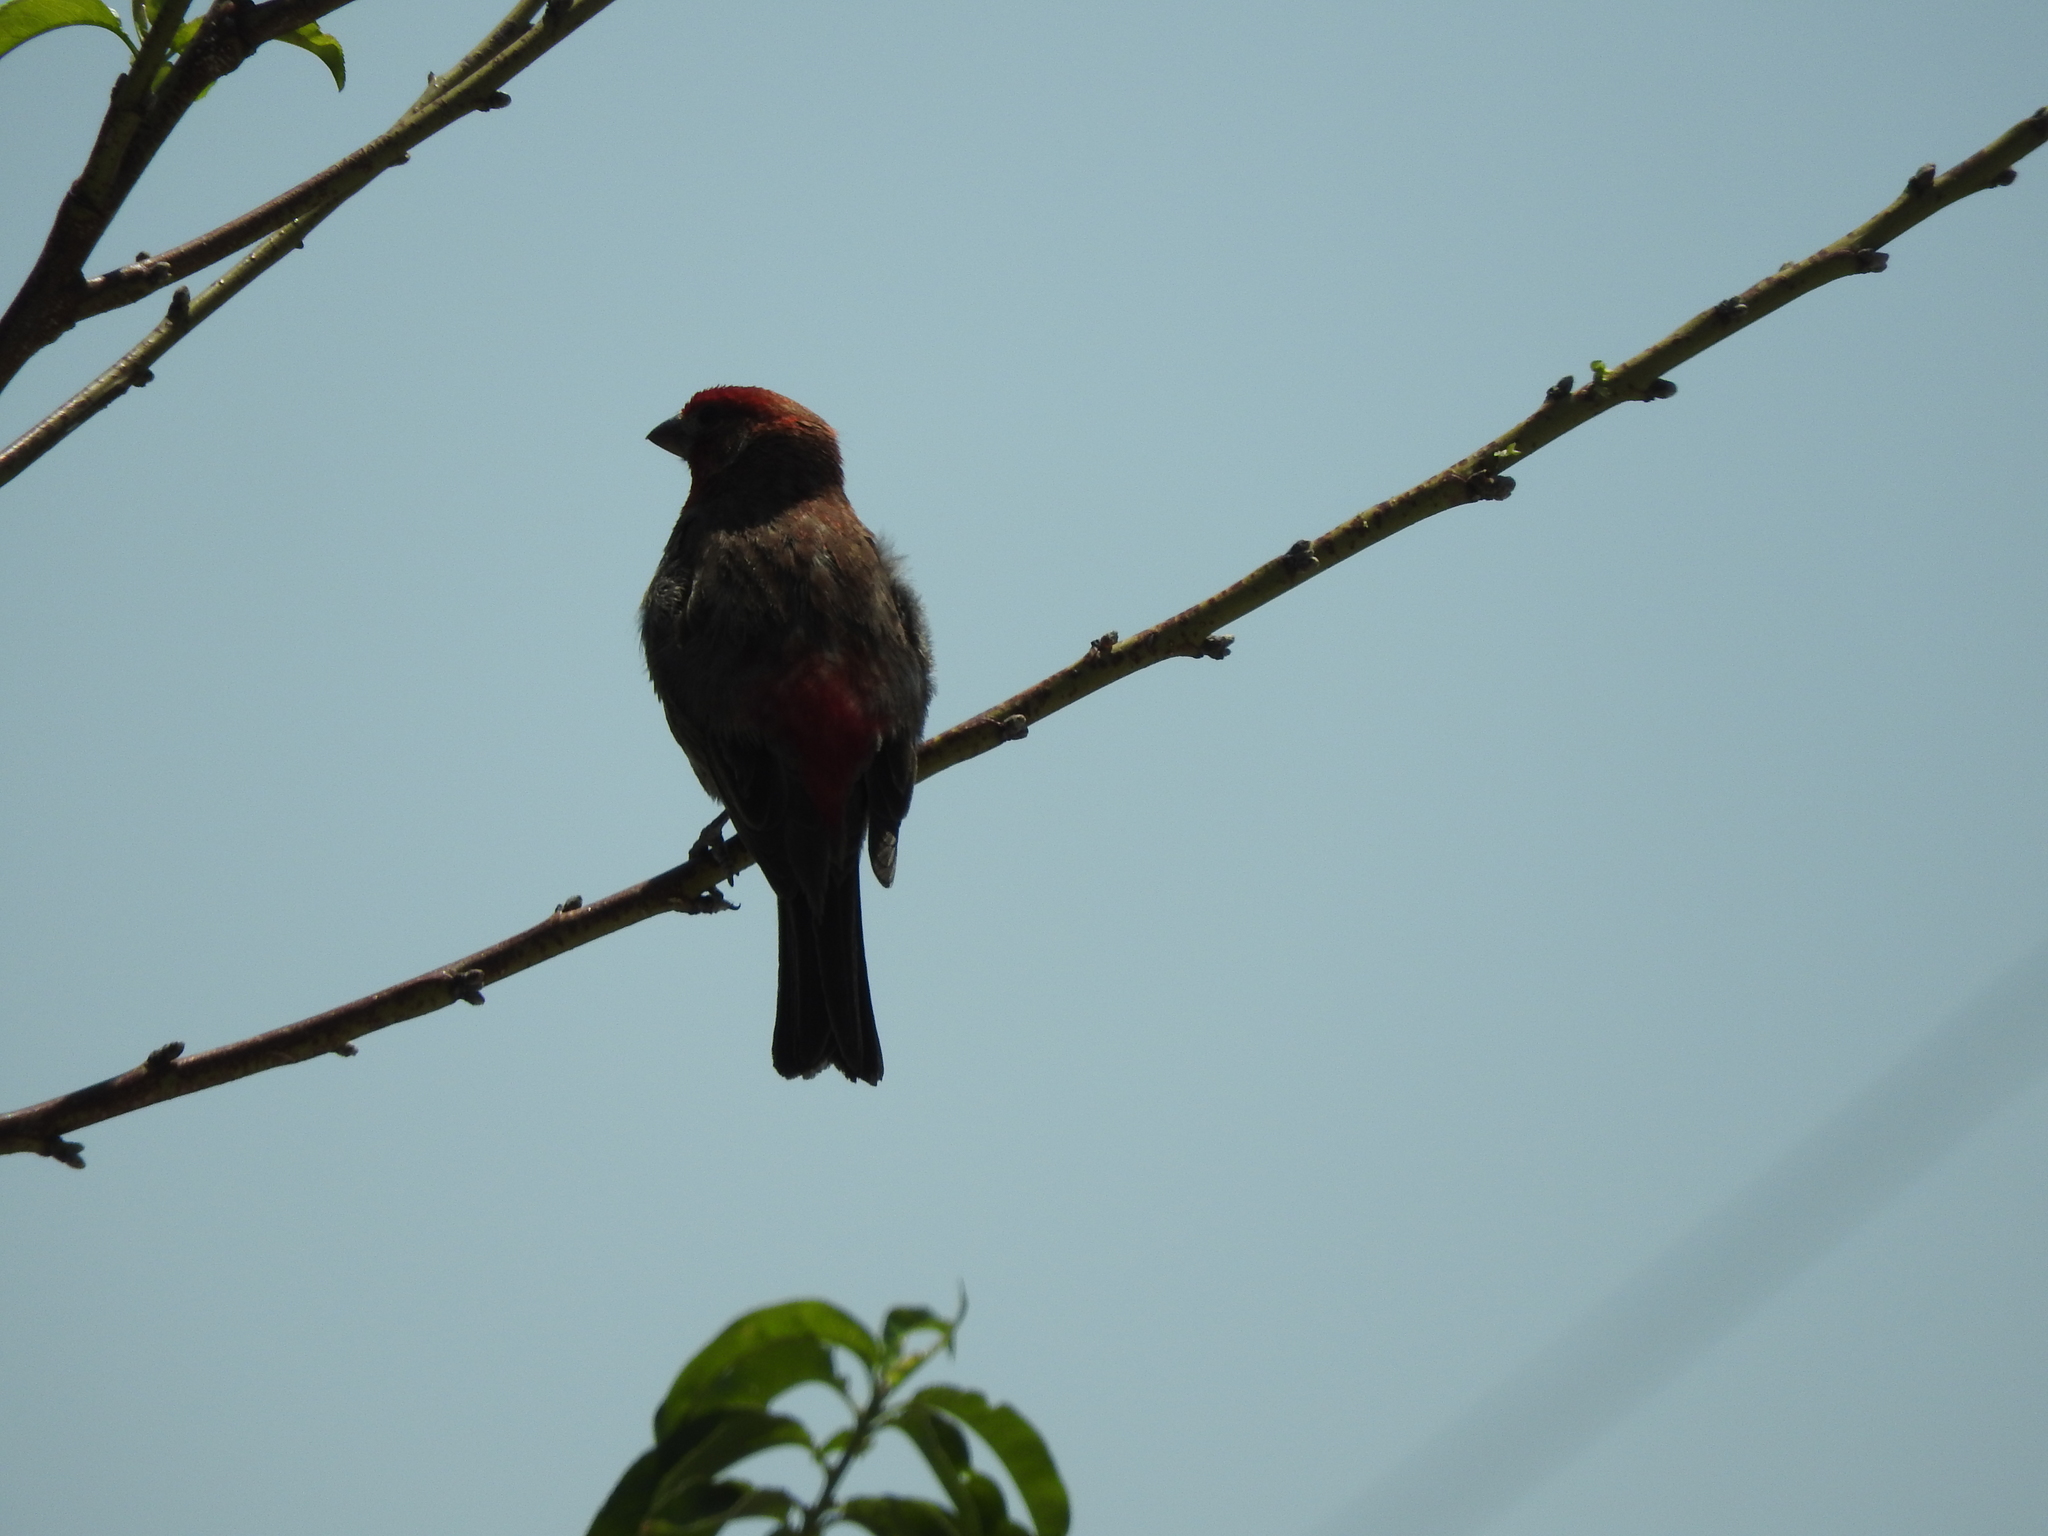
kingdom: Animalia
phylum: Chordata
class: Aves
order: Passeriformes
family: Fringillidae
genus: Haemorhous
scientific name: Haemorhous mexicanus
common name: House finch
